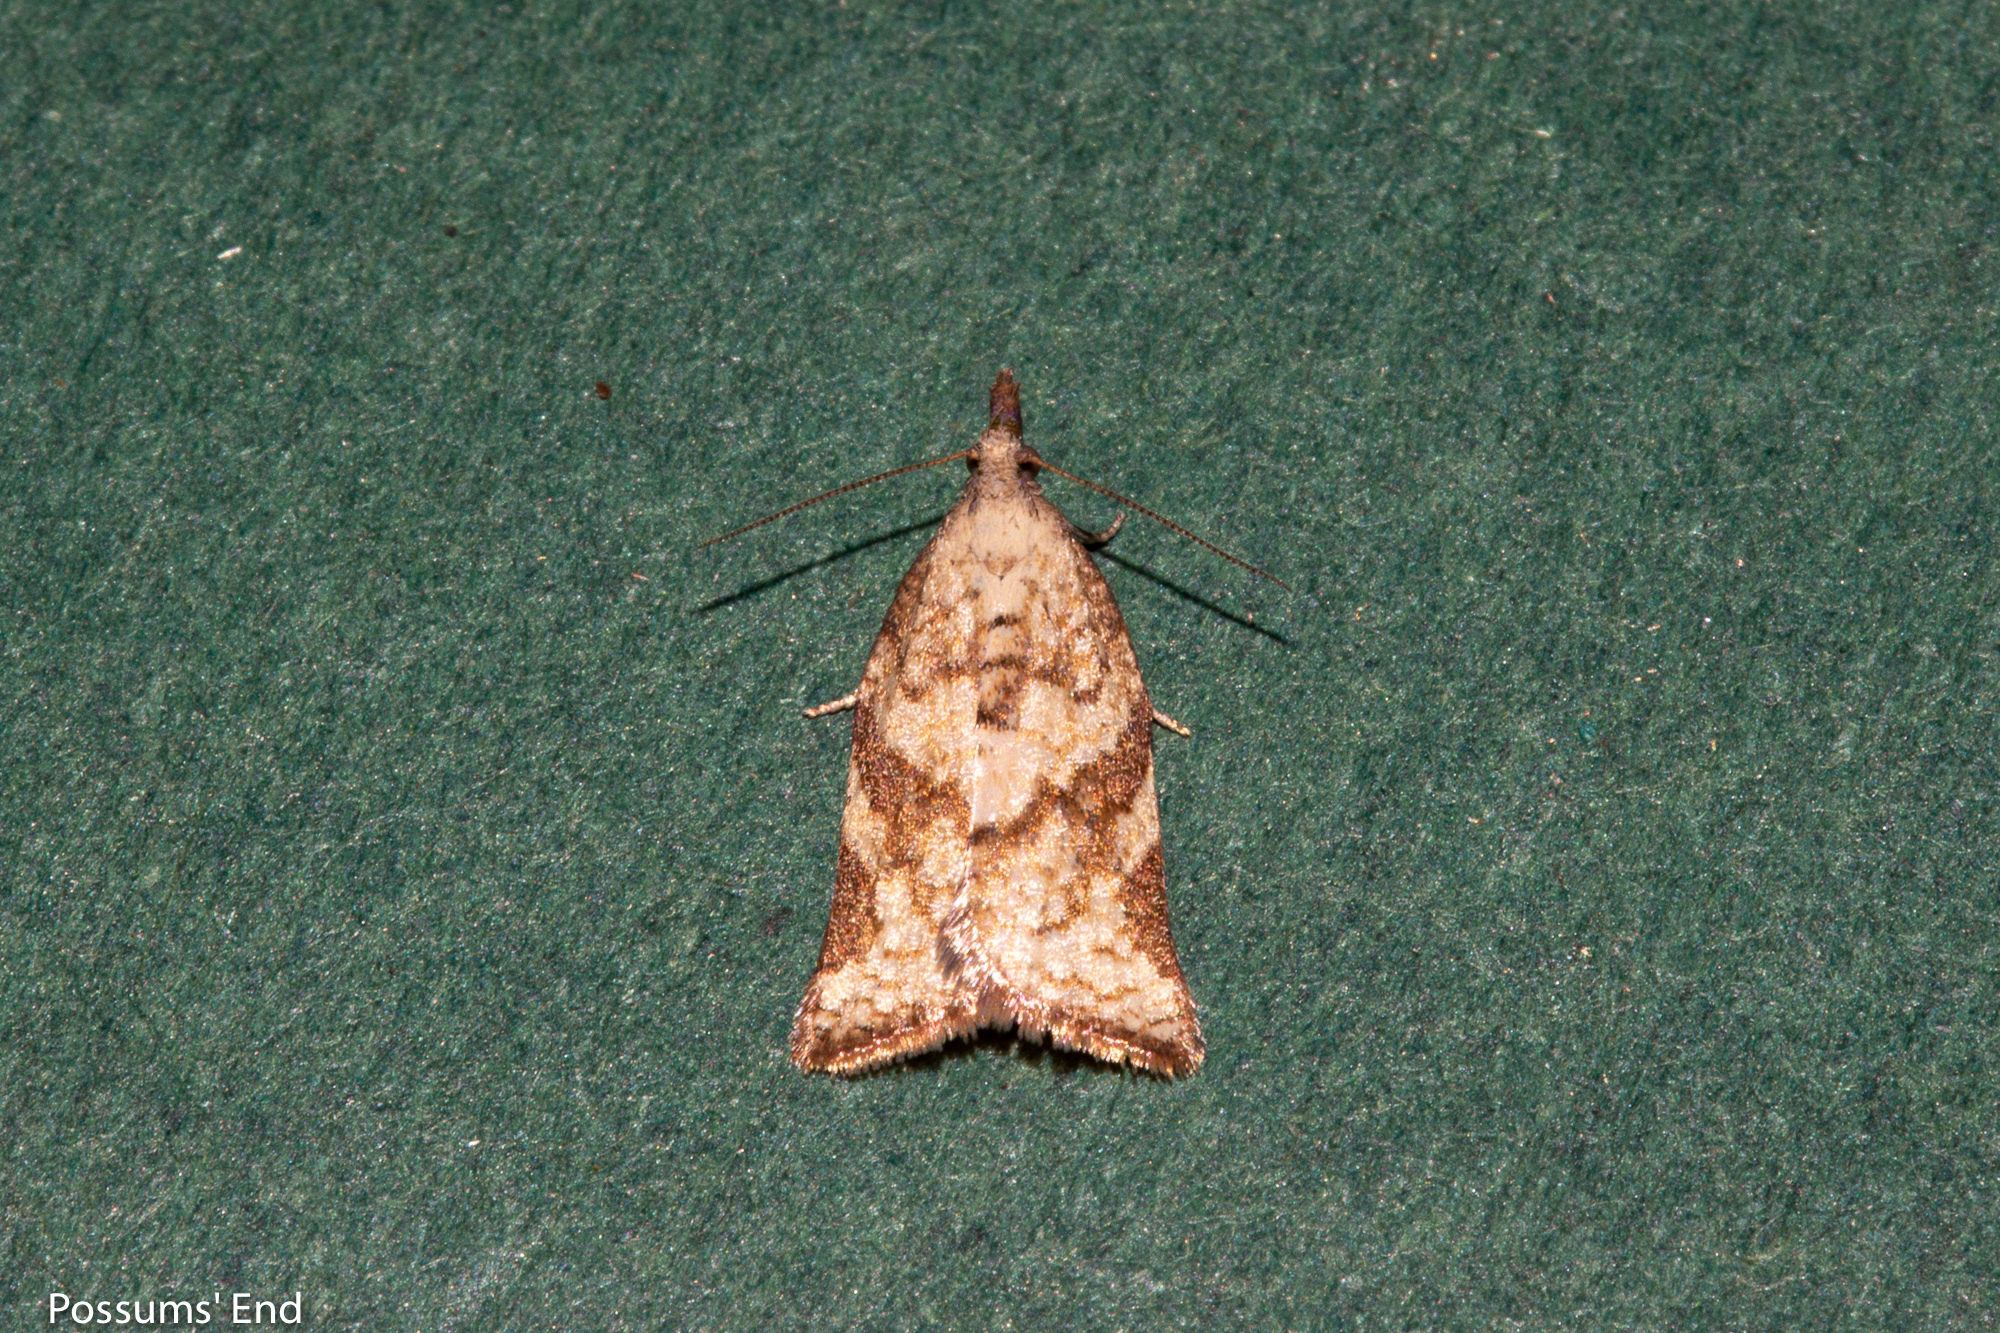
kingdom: Animalia
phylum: Arthropoda
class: Insecta
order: Lepidoptera
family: Tortricidae
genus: Catamacta
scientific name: Catamacta gavisana
